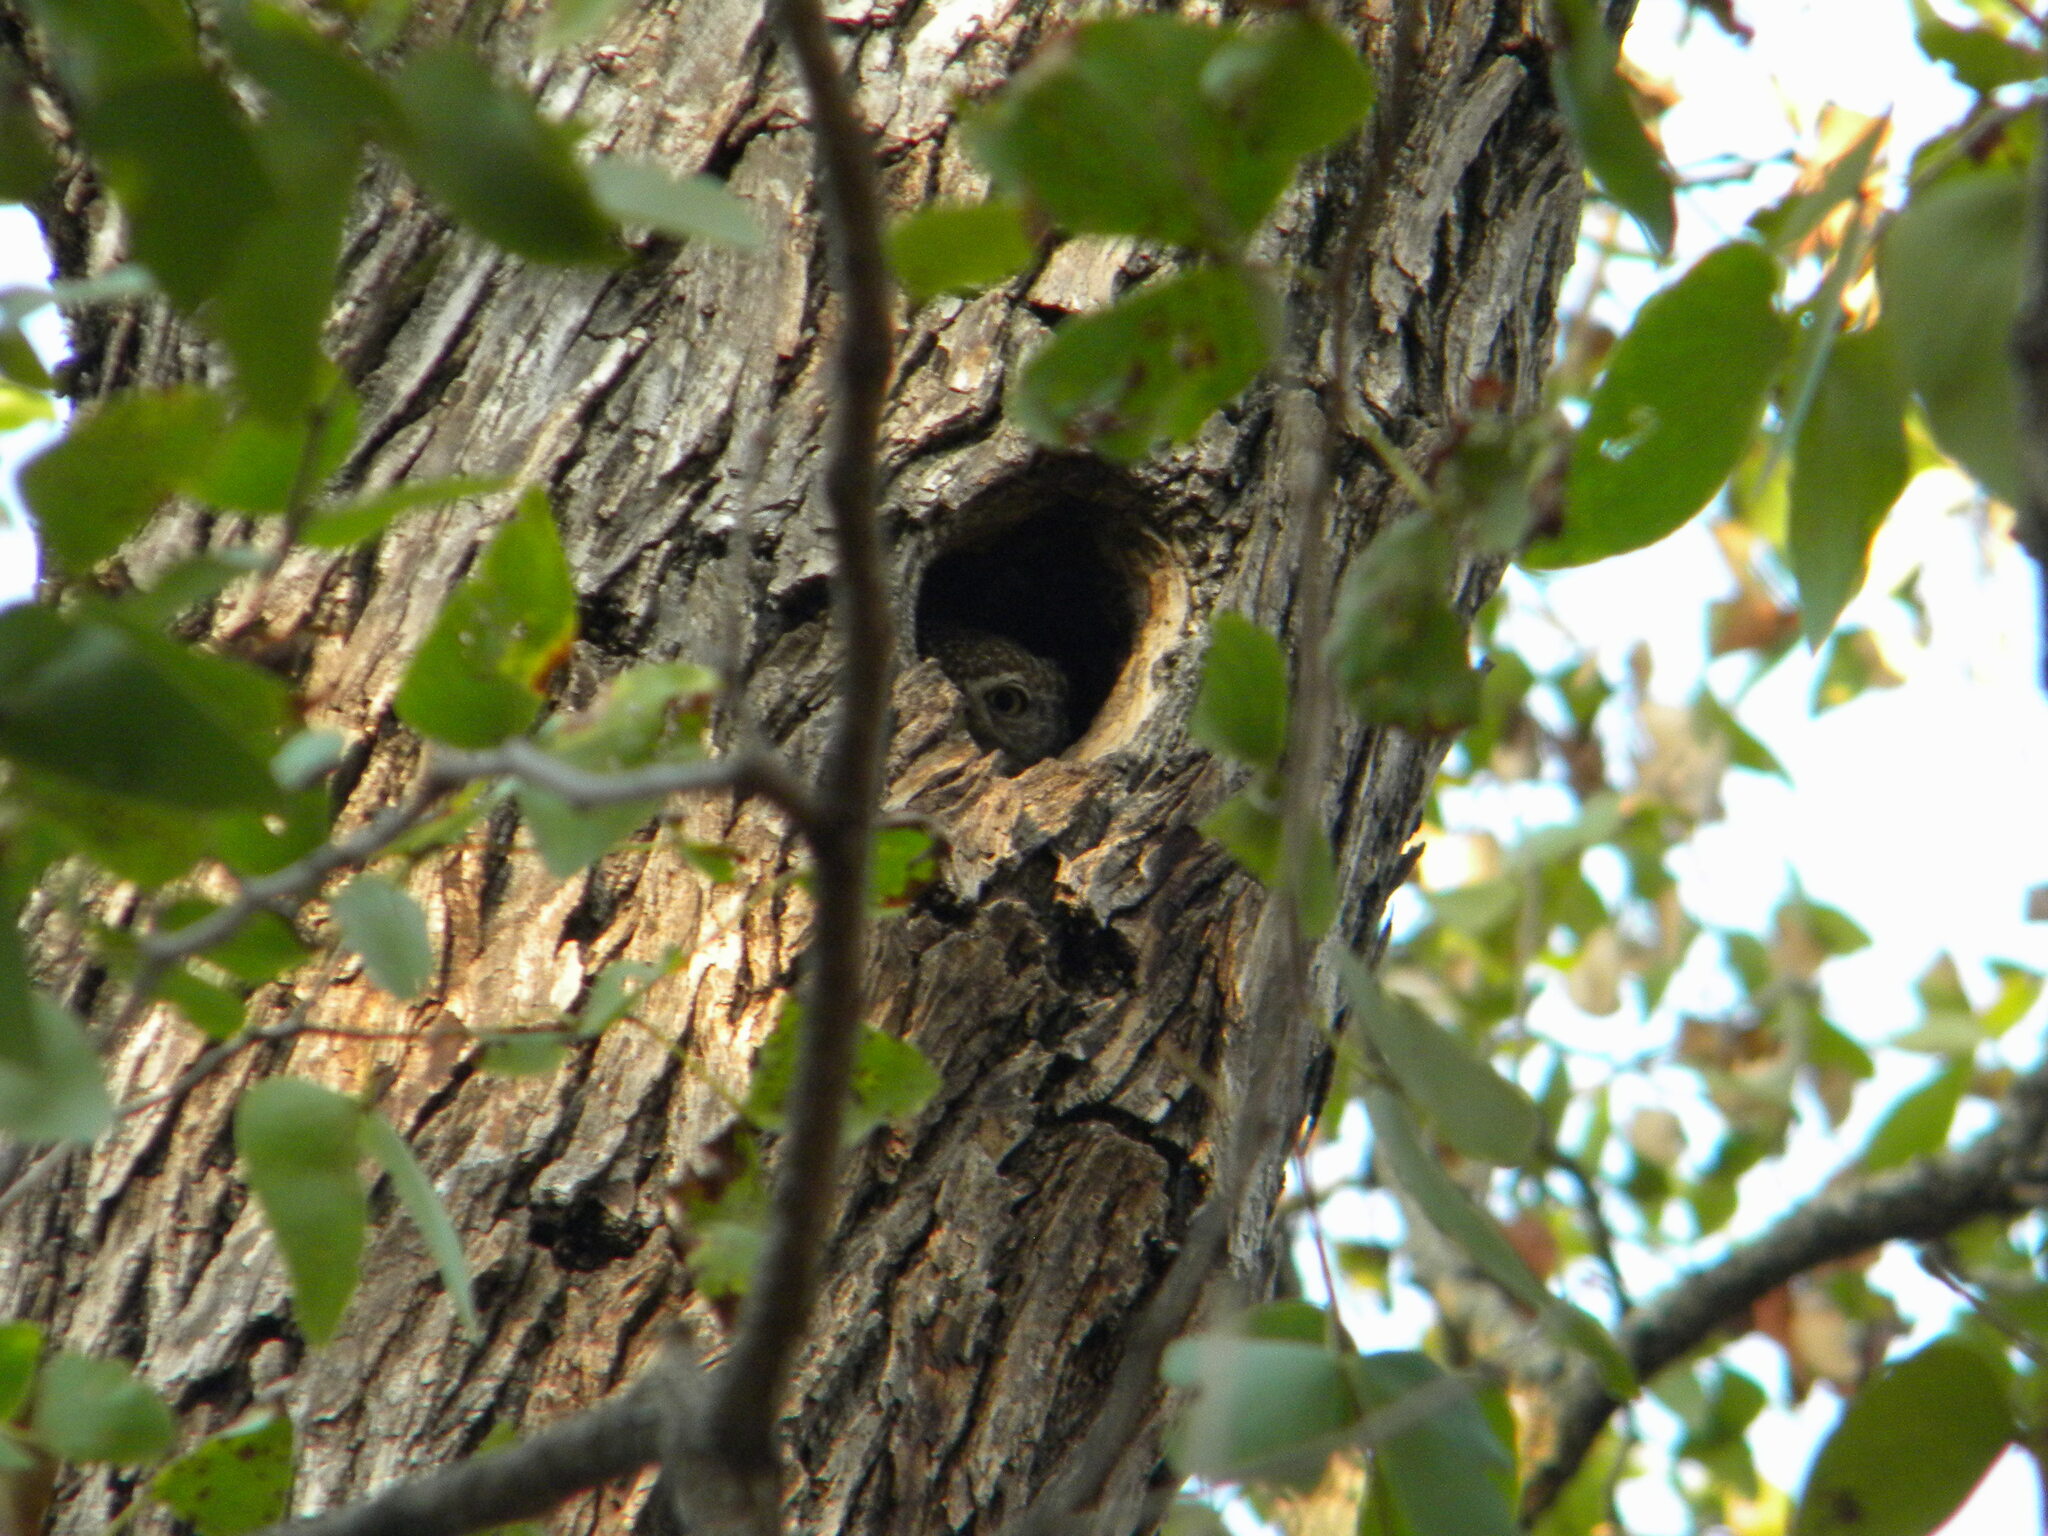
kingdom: Animalia
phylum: Chordata
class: Aves
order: Strigiformes
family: Strigidae
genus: Glaucidium
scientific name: Glaucidium perlatum
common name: Pearl-spotted owlet
